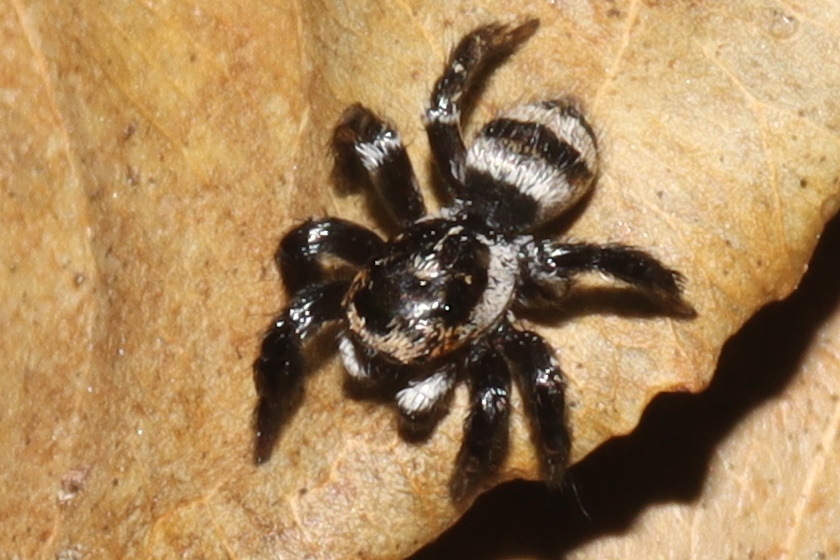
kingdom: Animalia
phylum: Arthropoda
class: Arachnida
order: Araneae
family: Salticidae
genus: Corythalia
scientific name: Corythalia argentinensis
